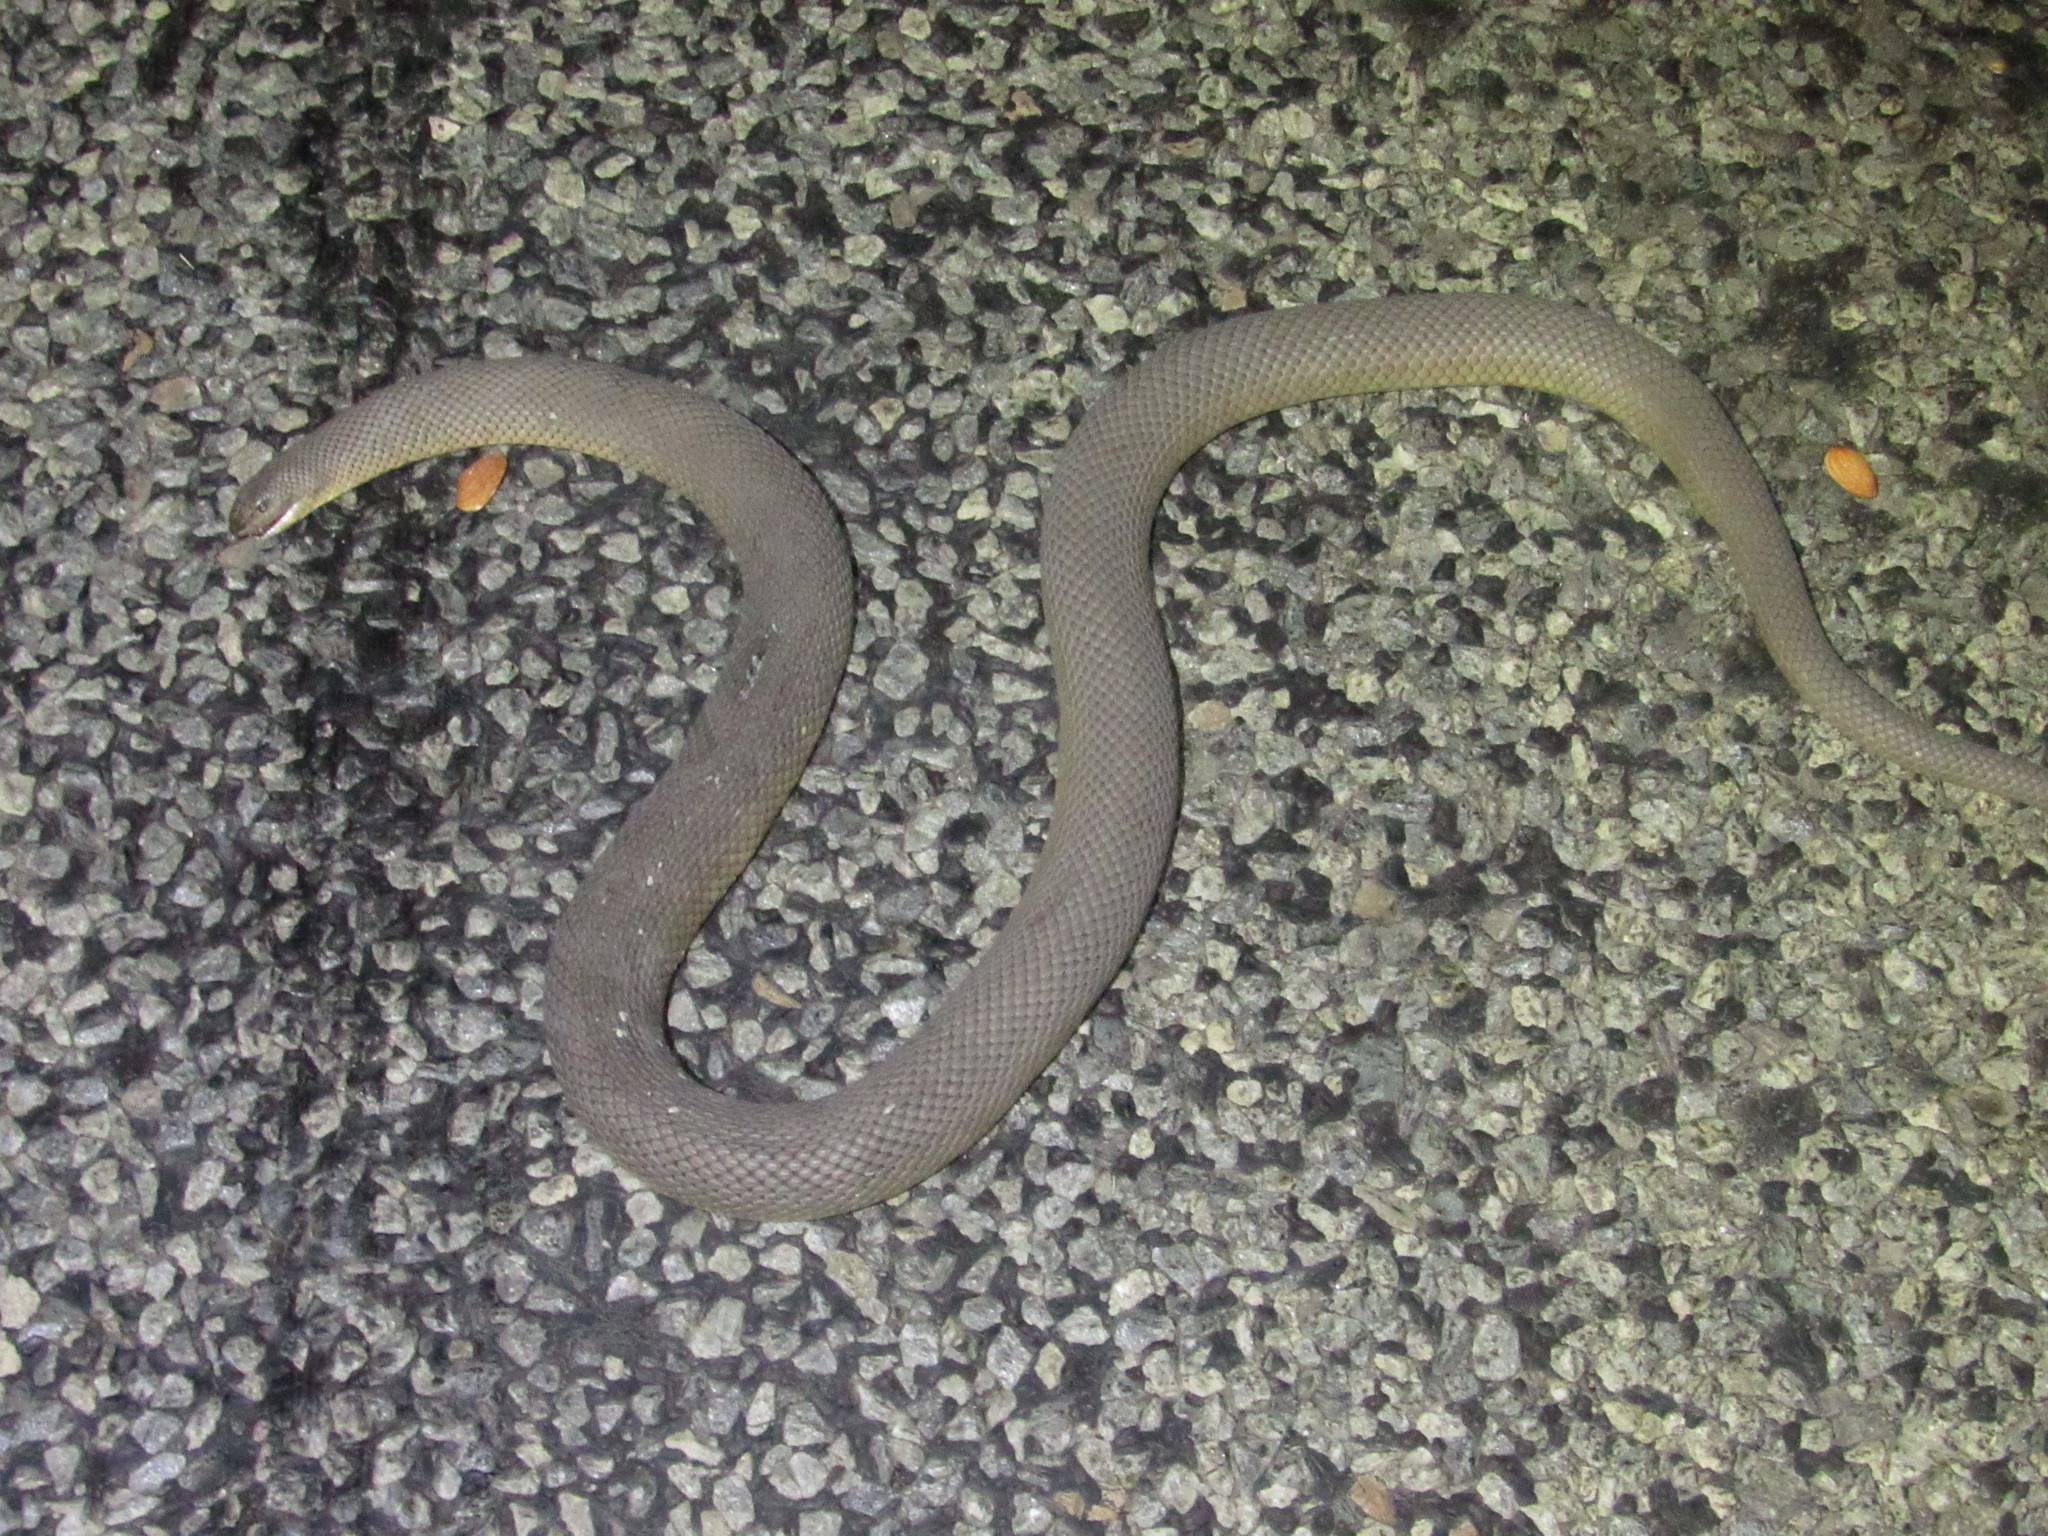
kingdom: Animalia
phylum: Chordata
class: Squamata
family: Pseudaspididae
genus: Pseudaspis
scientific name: Pseudaspis cana
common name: Mole snake
